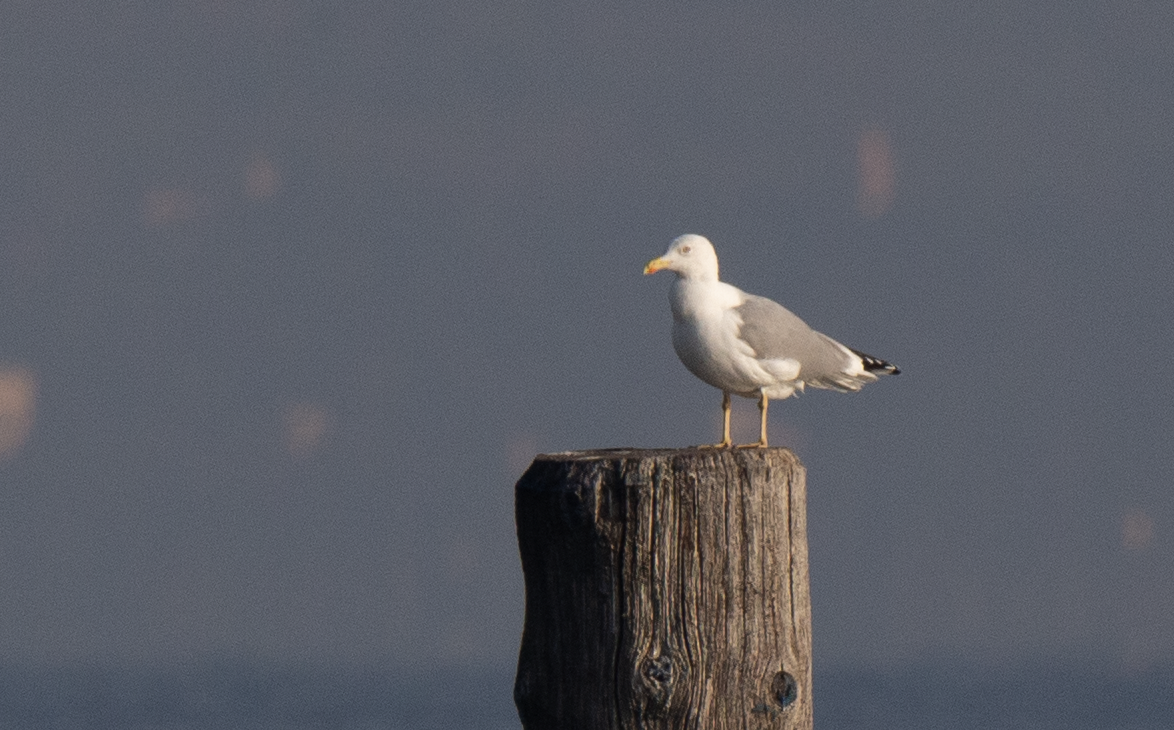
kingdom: Animalia
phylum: Chordata
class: Aves
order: Charadriiformes
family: Laridae
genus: Larus
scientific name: Larus michahellis
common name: Yellow-legged gull
